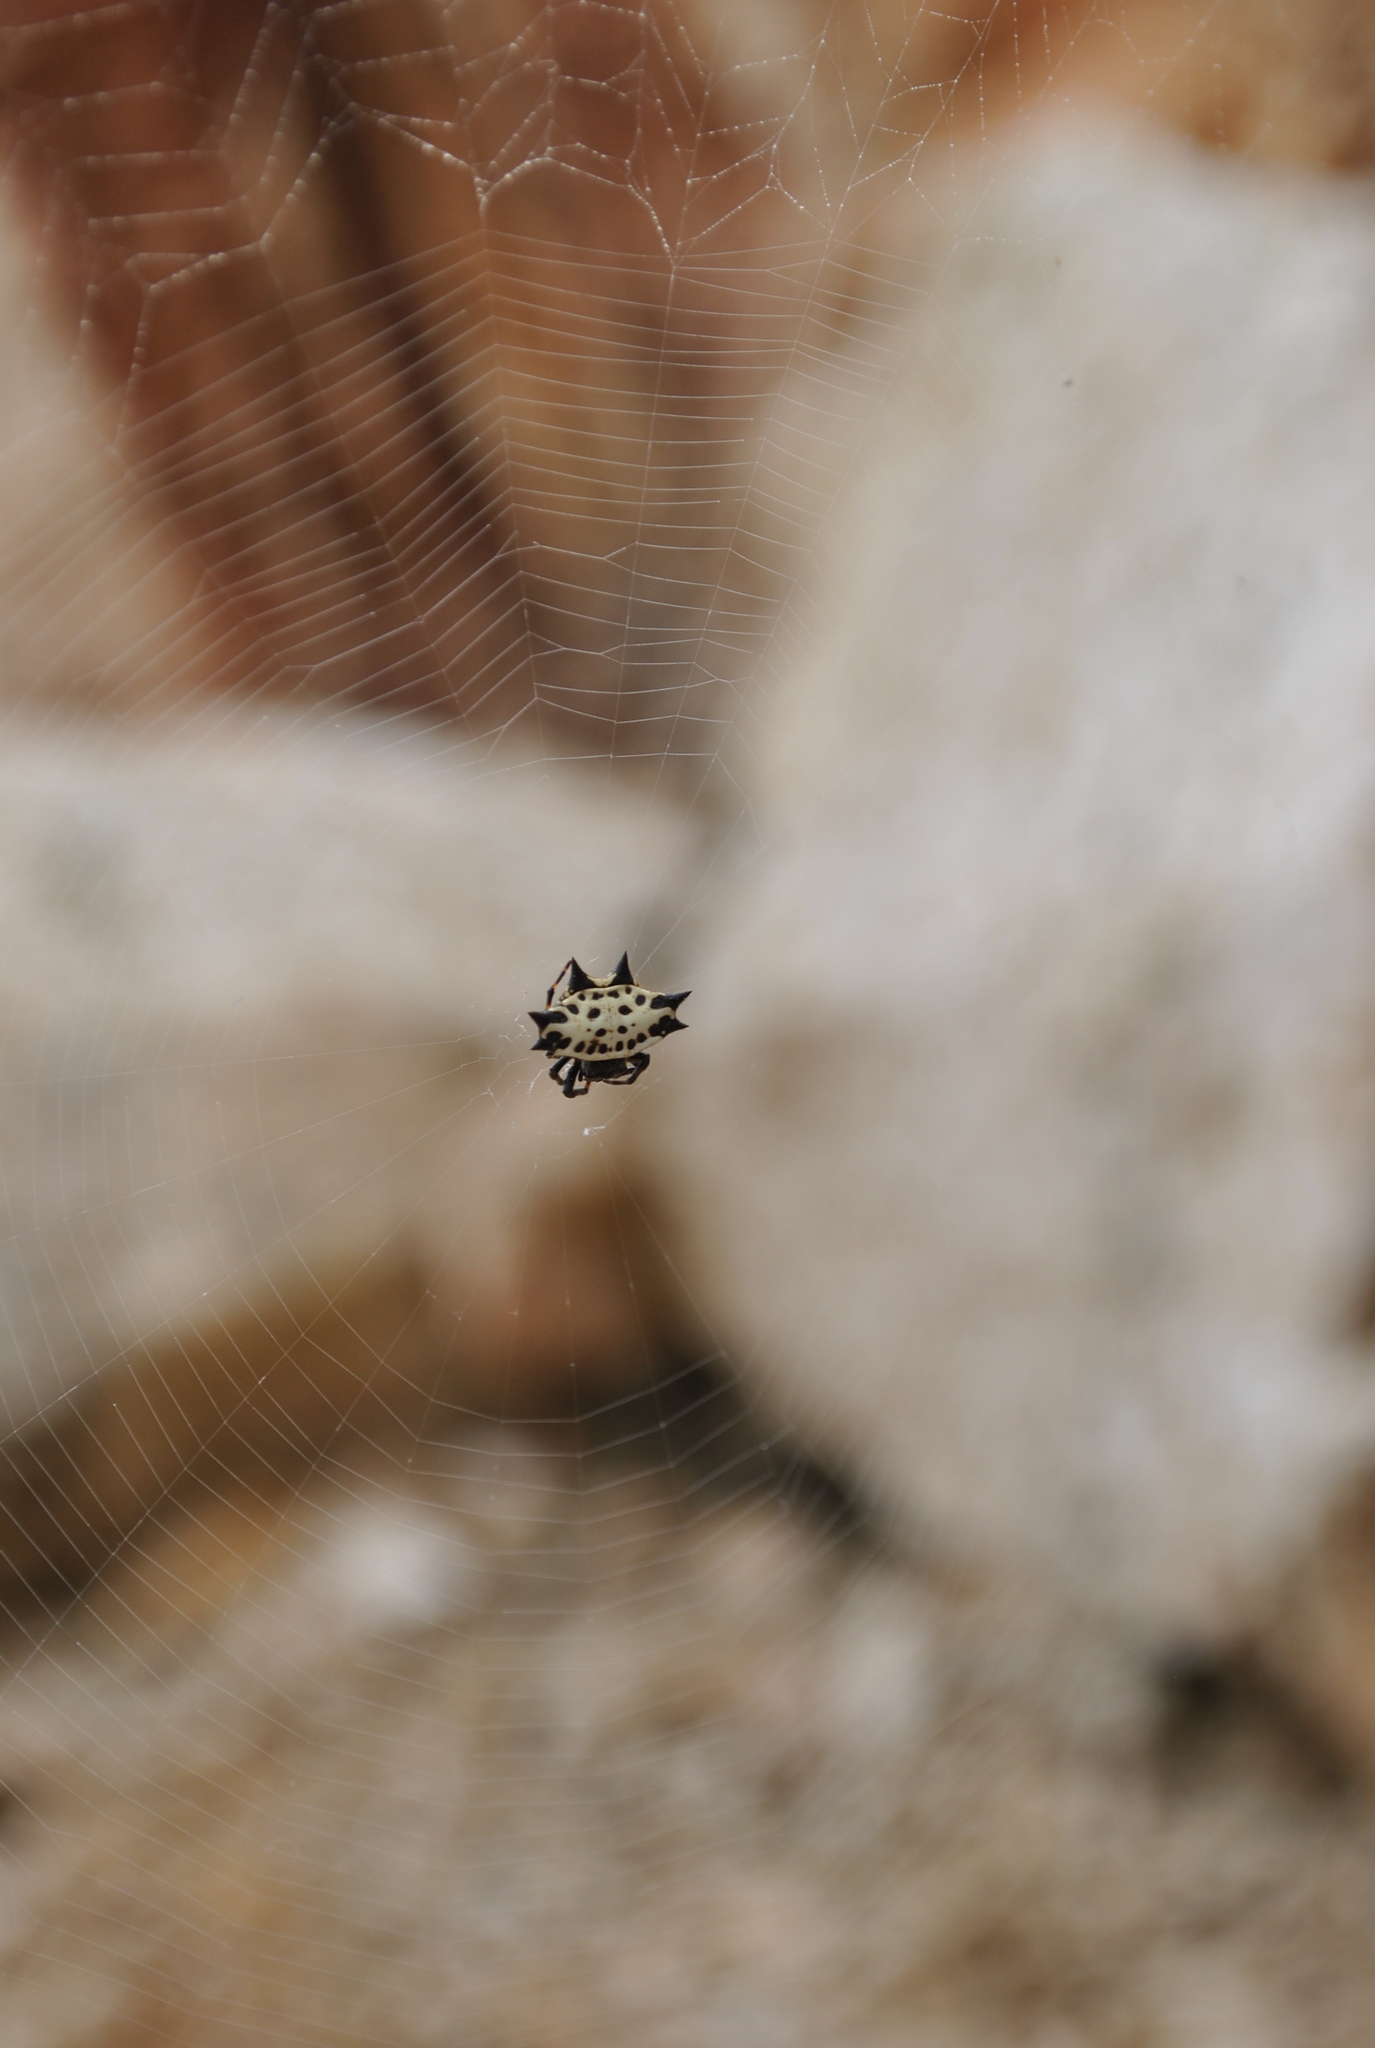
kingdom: Animalia
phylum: Arthropoda
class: Arachnida
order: Araneae
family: Araneidae
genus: Gasteracantha
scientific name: Gasteracantha cancriformis
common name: Orb weavers
